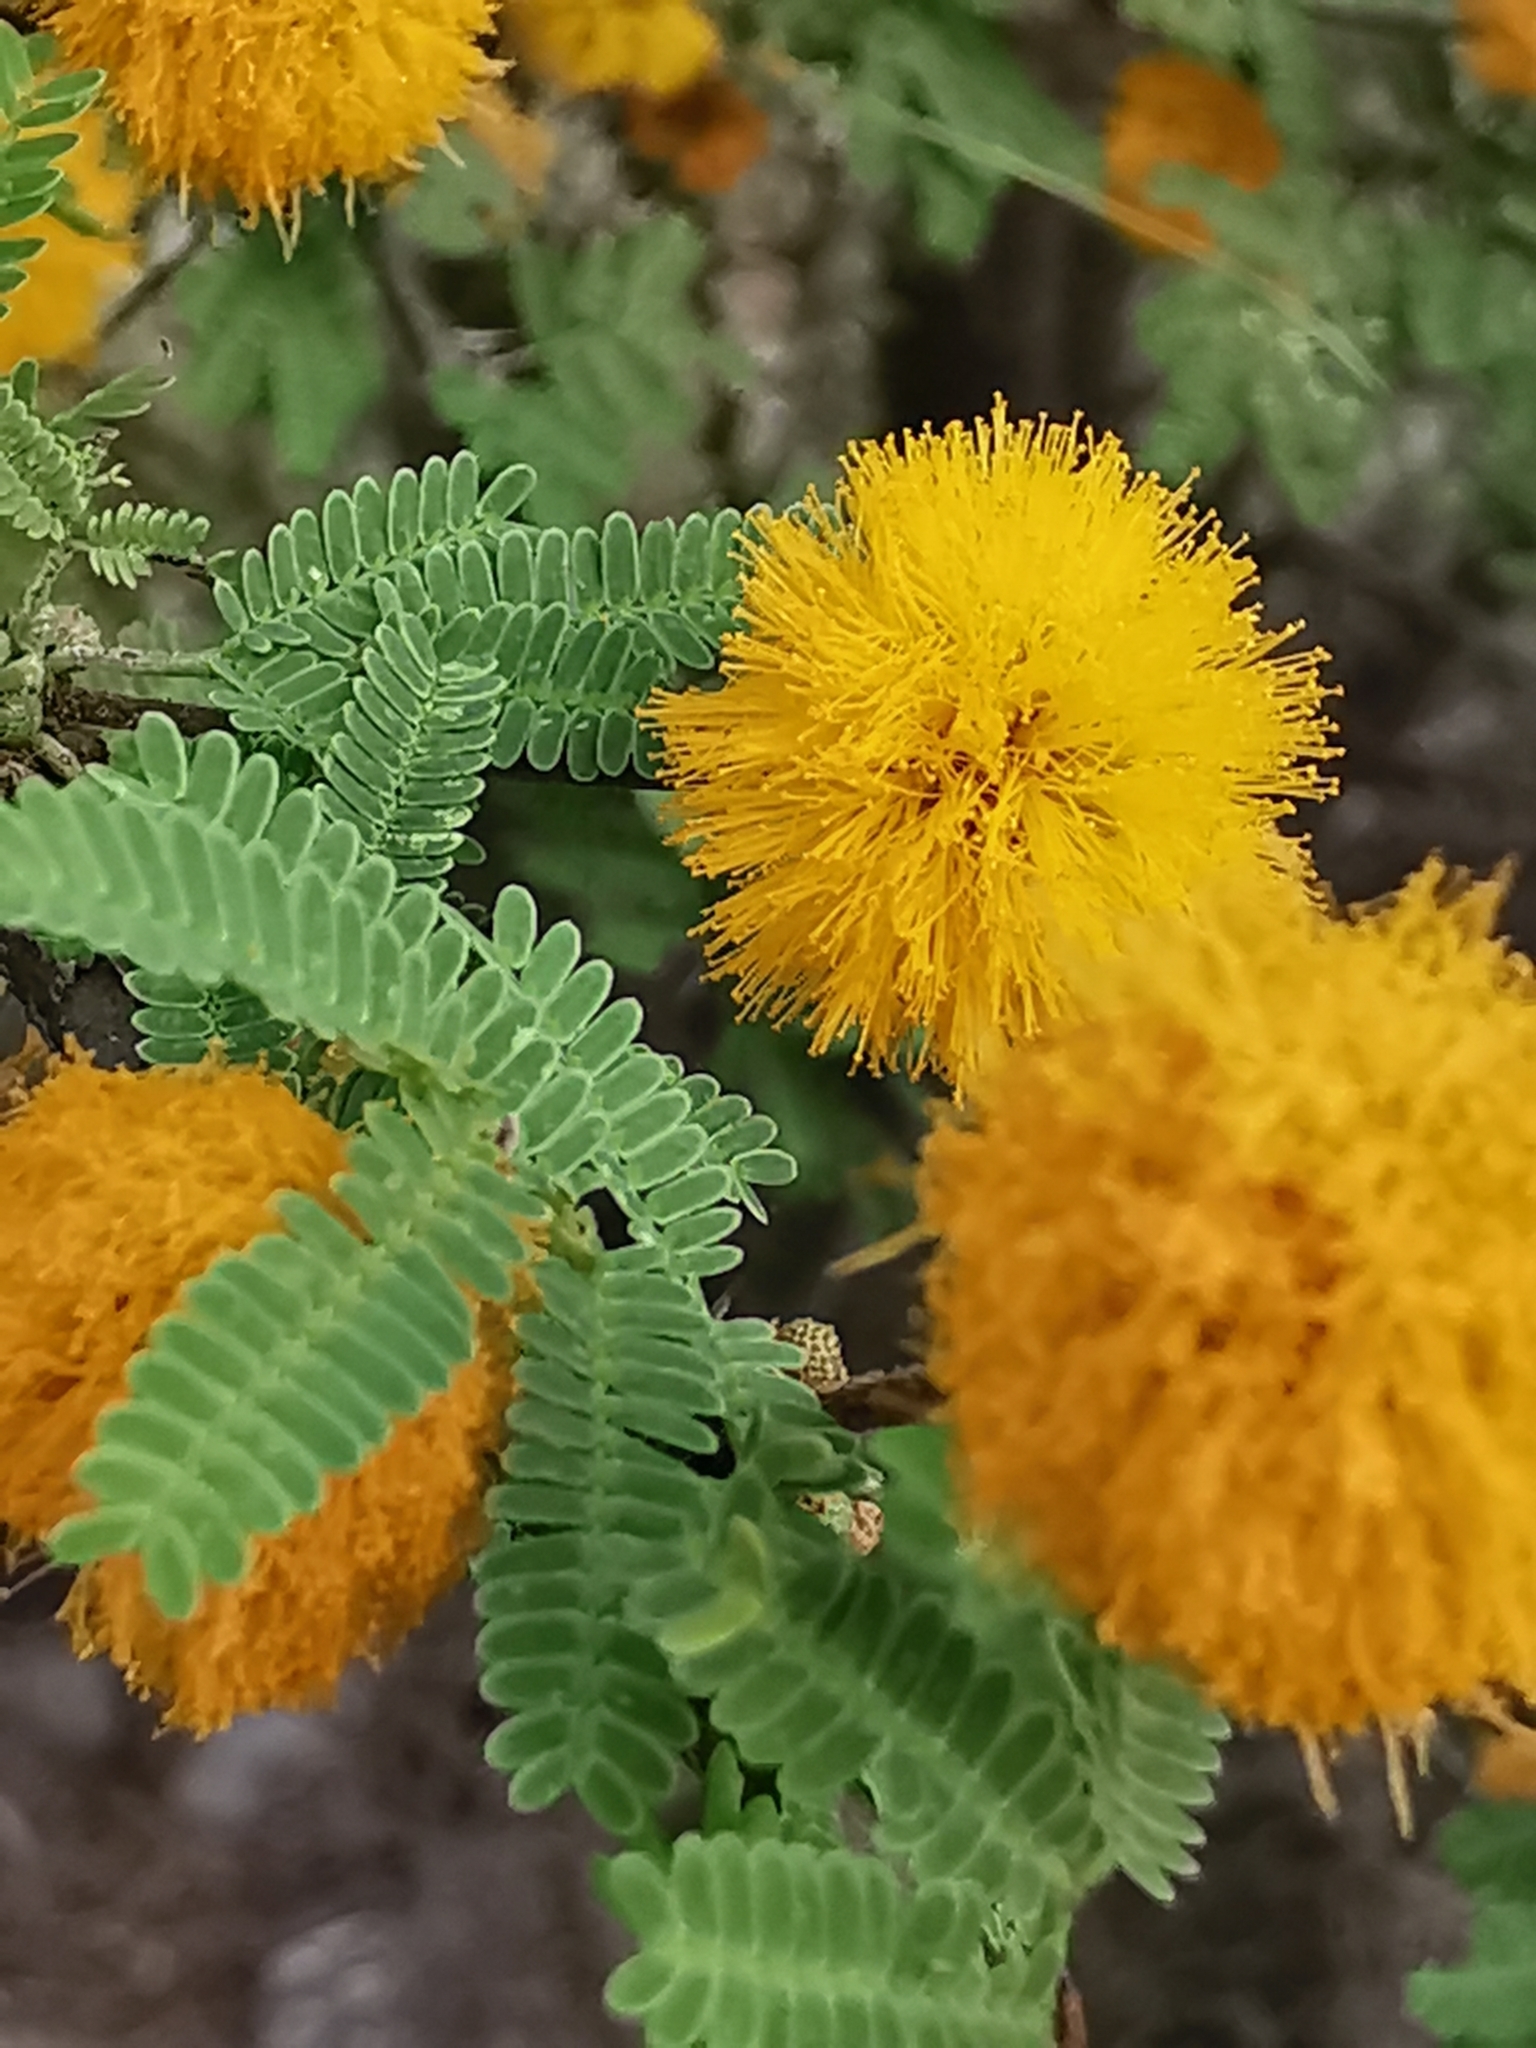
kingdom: Plantae
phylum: Tracheophyta
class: Magnoliopsida
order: Fabales
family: Fabaceae
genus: Vachellia
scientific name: Vachellia farnesiana
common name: Sweet acacia
